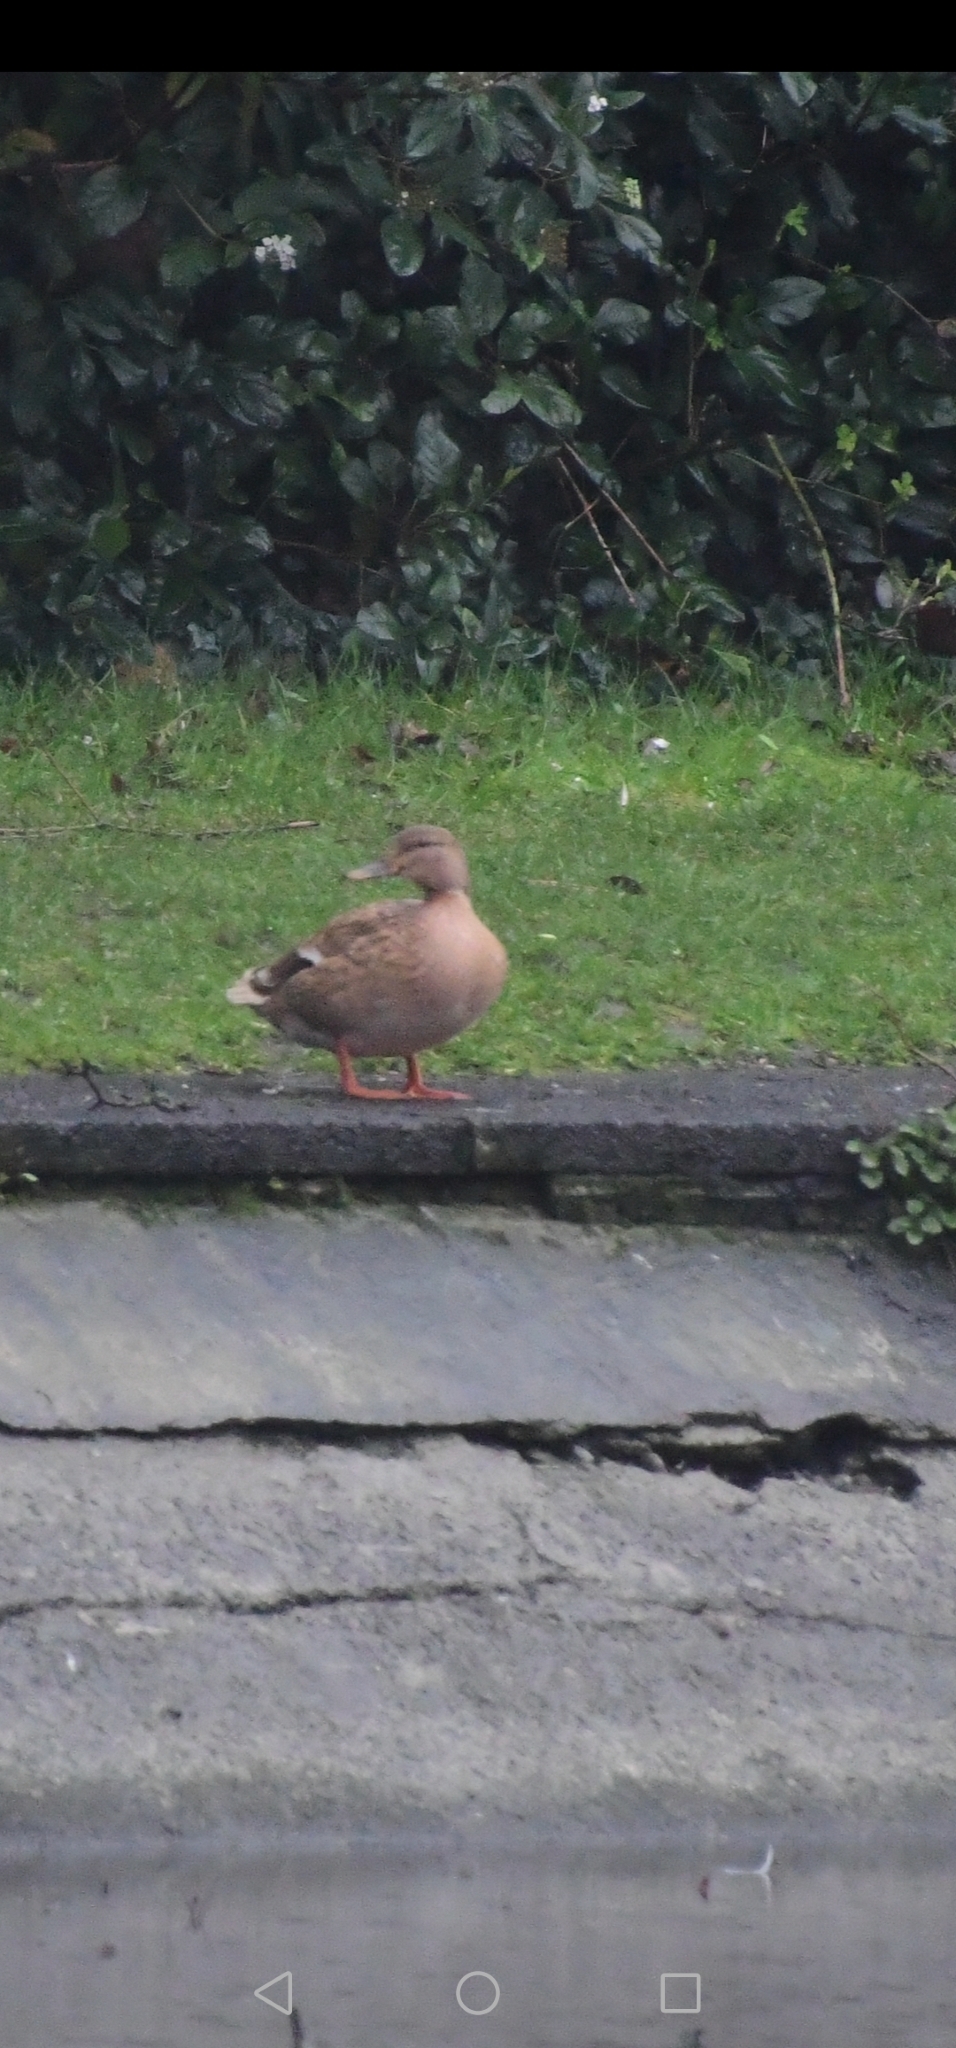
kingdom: Animalia
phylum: Chordata
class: Aves
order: Anseriformes
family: Anatidae
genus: Anas
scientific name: Anas platyrhynchos
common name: Mallard
